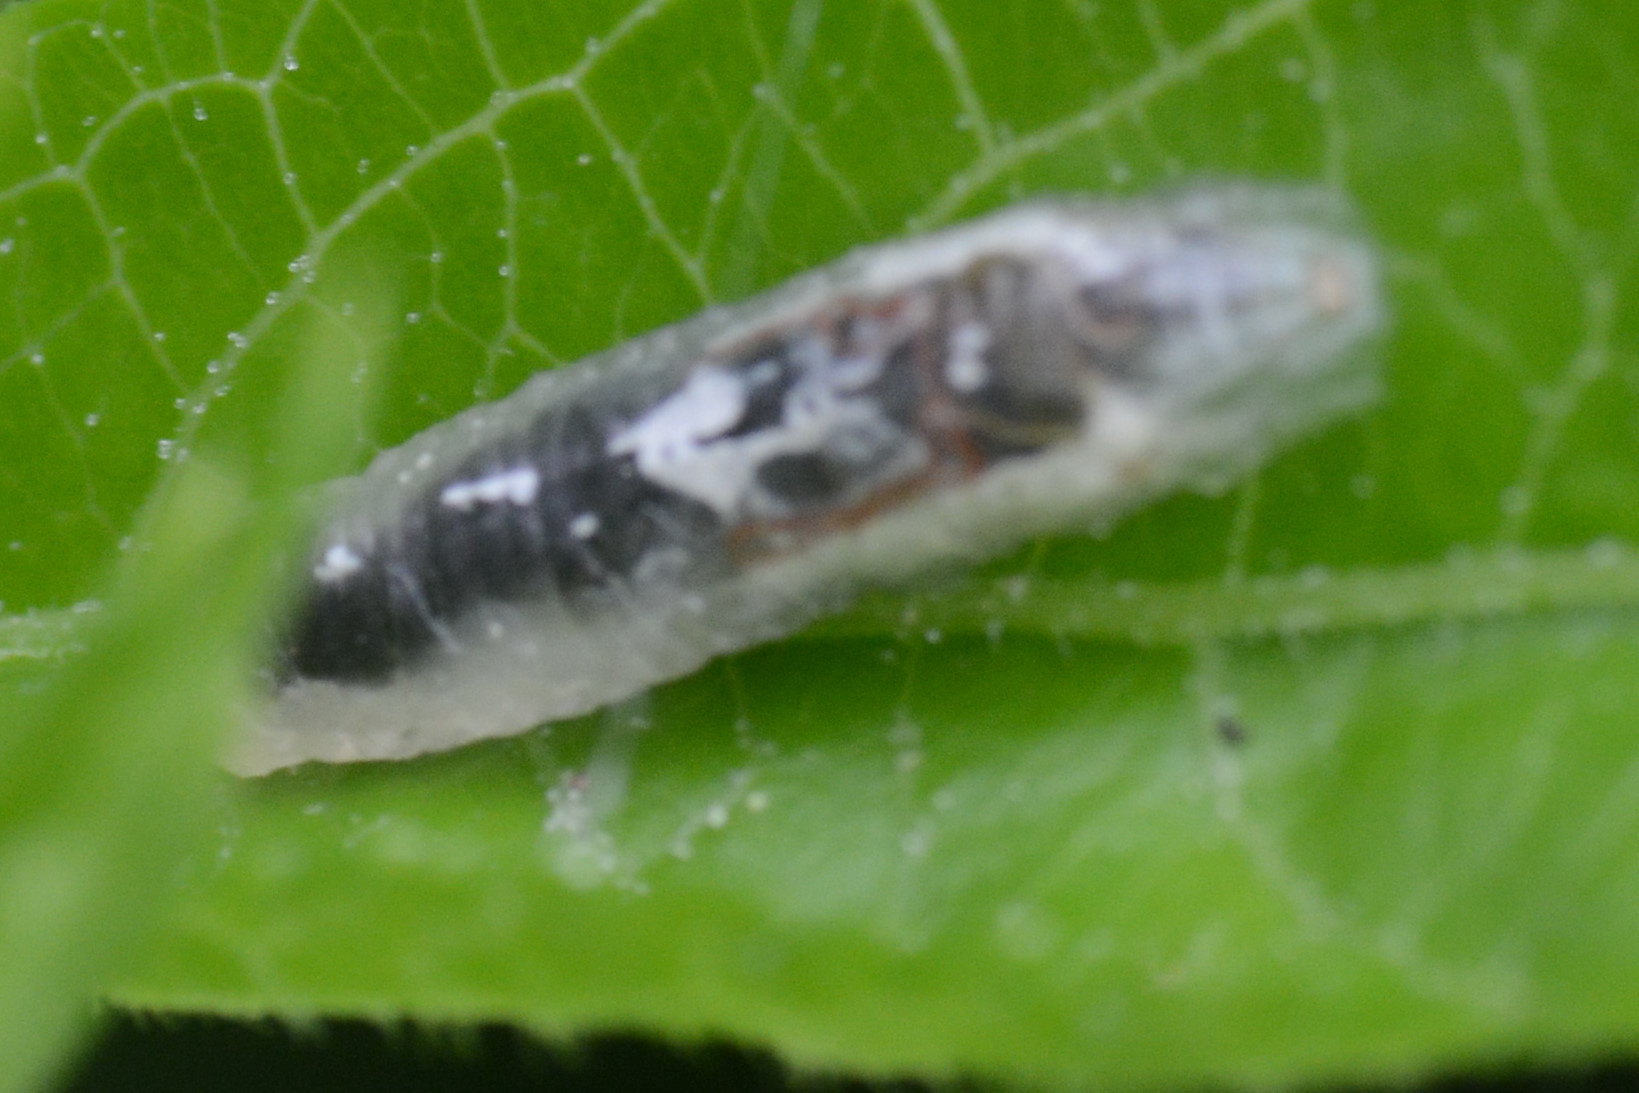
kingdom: Animalia
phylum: Arthropoda
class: Insecta
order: Diptera
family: Syrphidae
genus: Episyrphus
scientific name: Episyrphus balteatus
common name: Marmalade hoverfly
